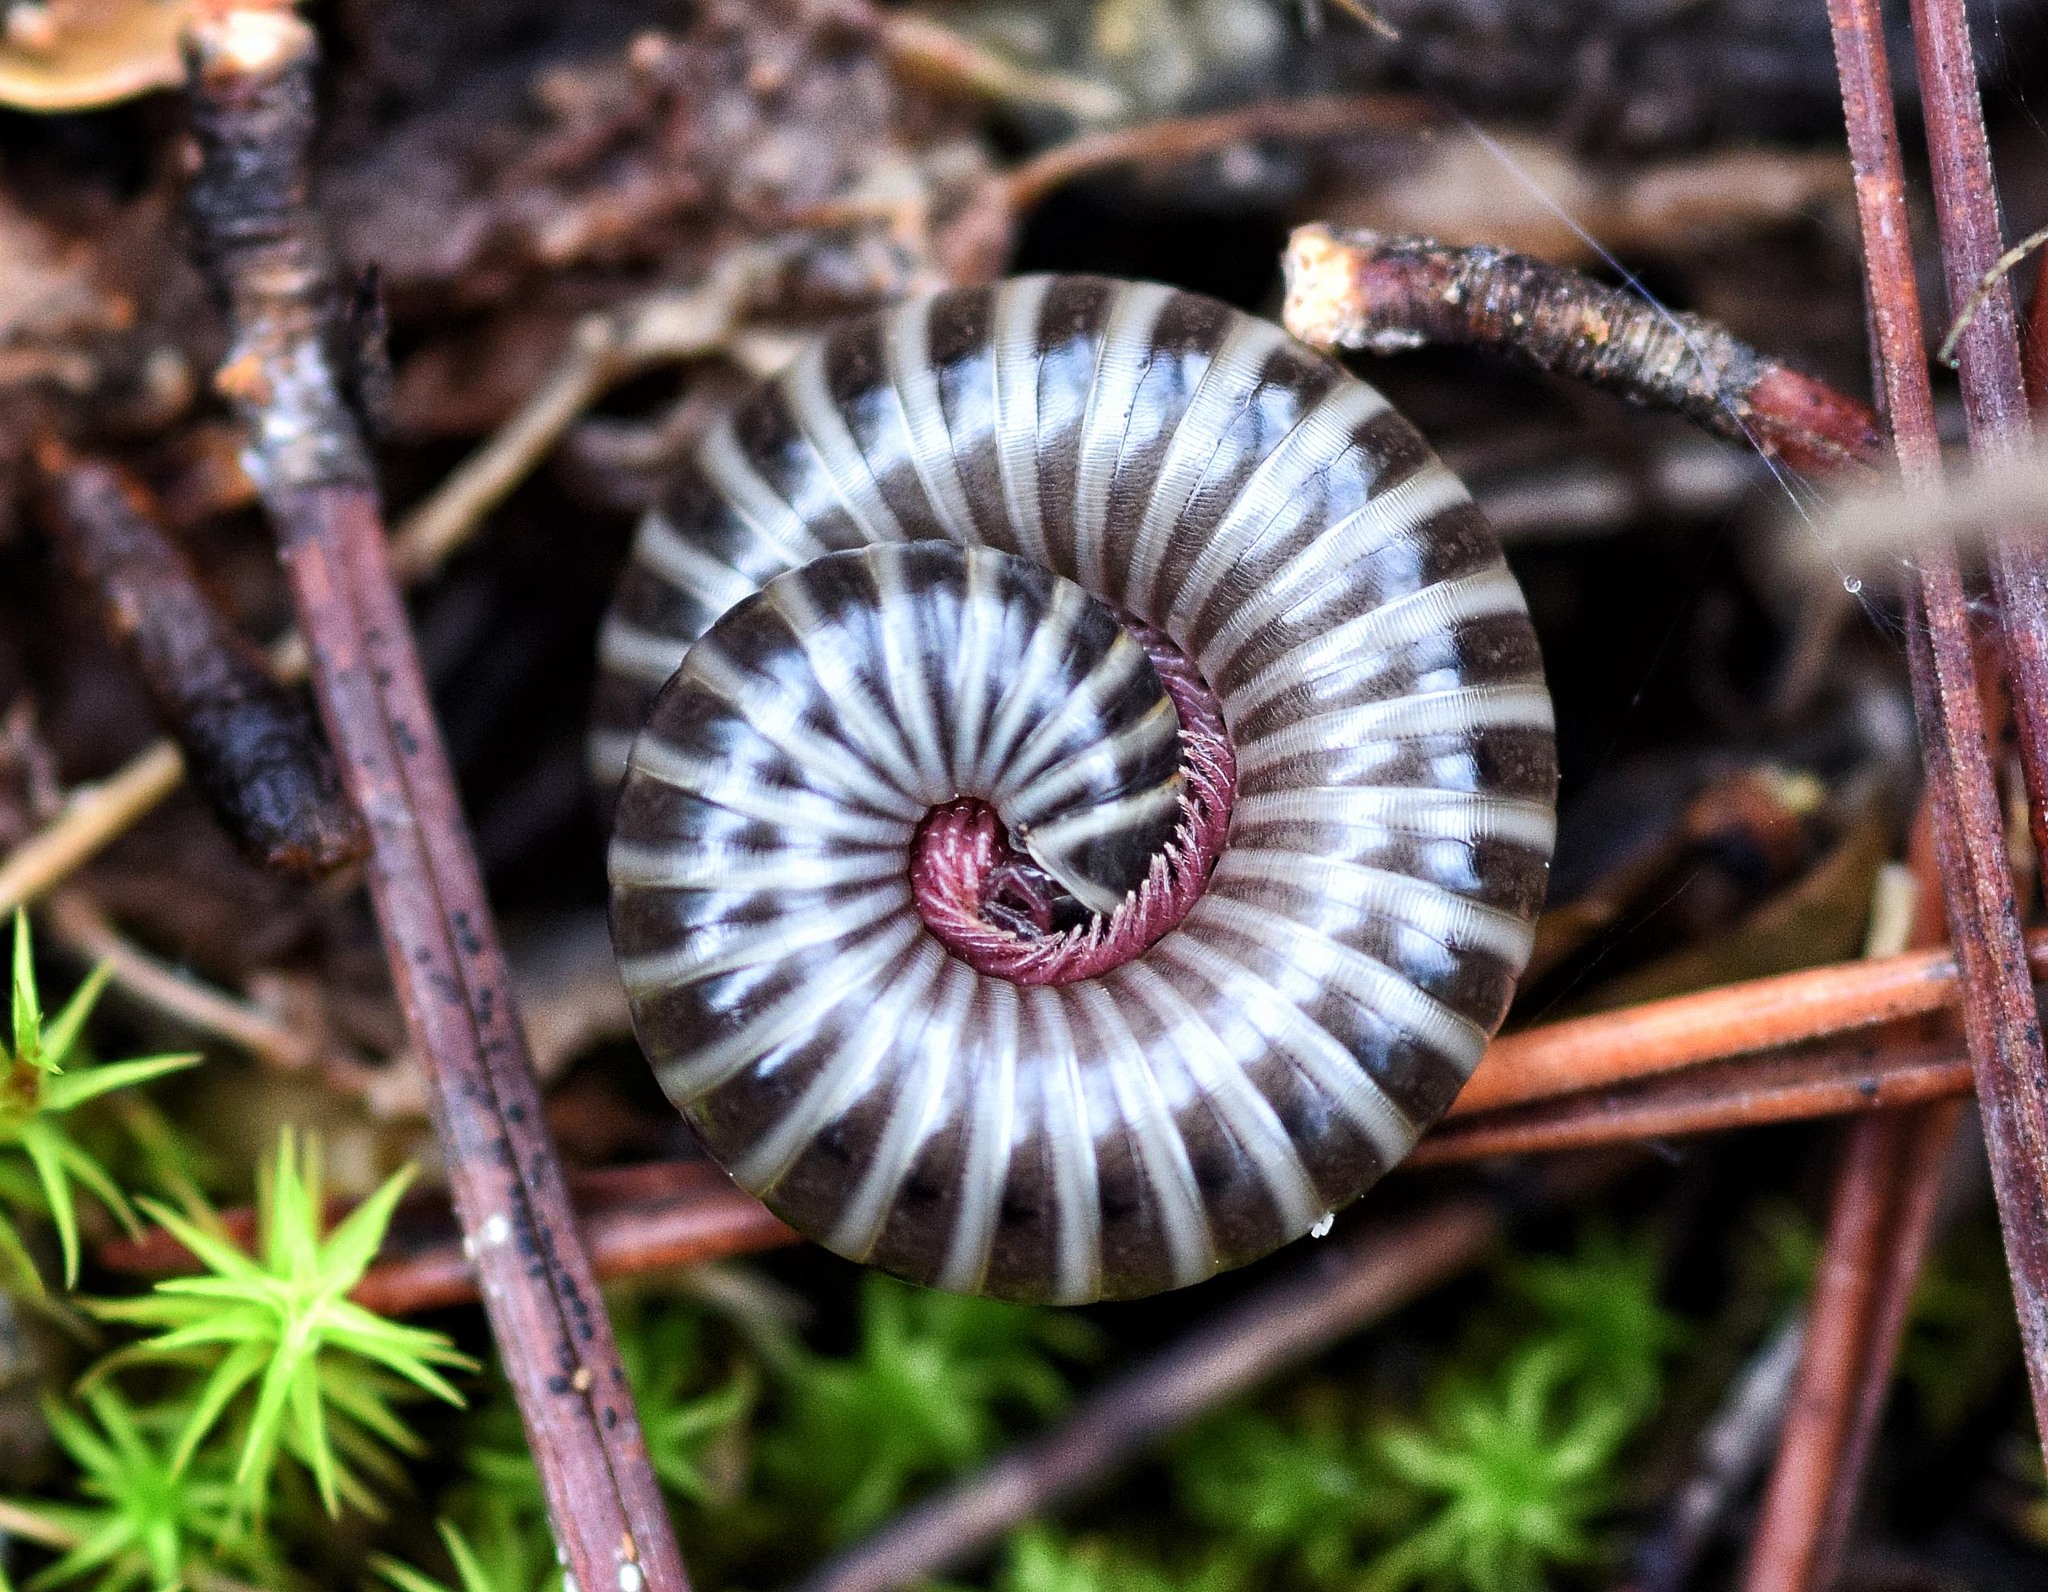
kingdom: Animalia
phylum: Arthropoda
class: Diplopoda
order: Julida
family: Julidae
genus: Ommatoiulus
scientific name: Ommatoiulus diplurus
